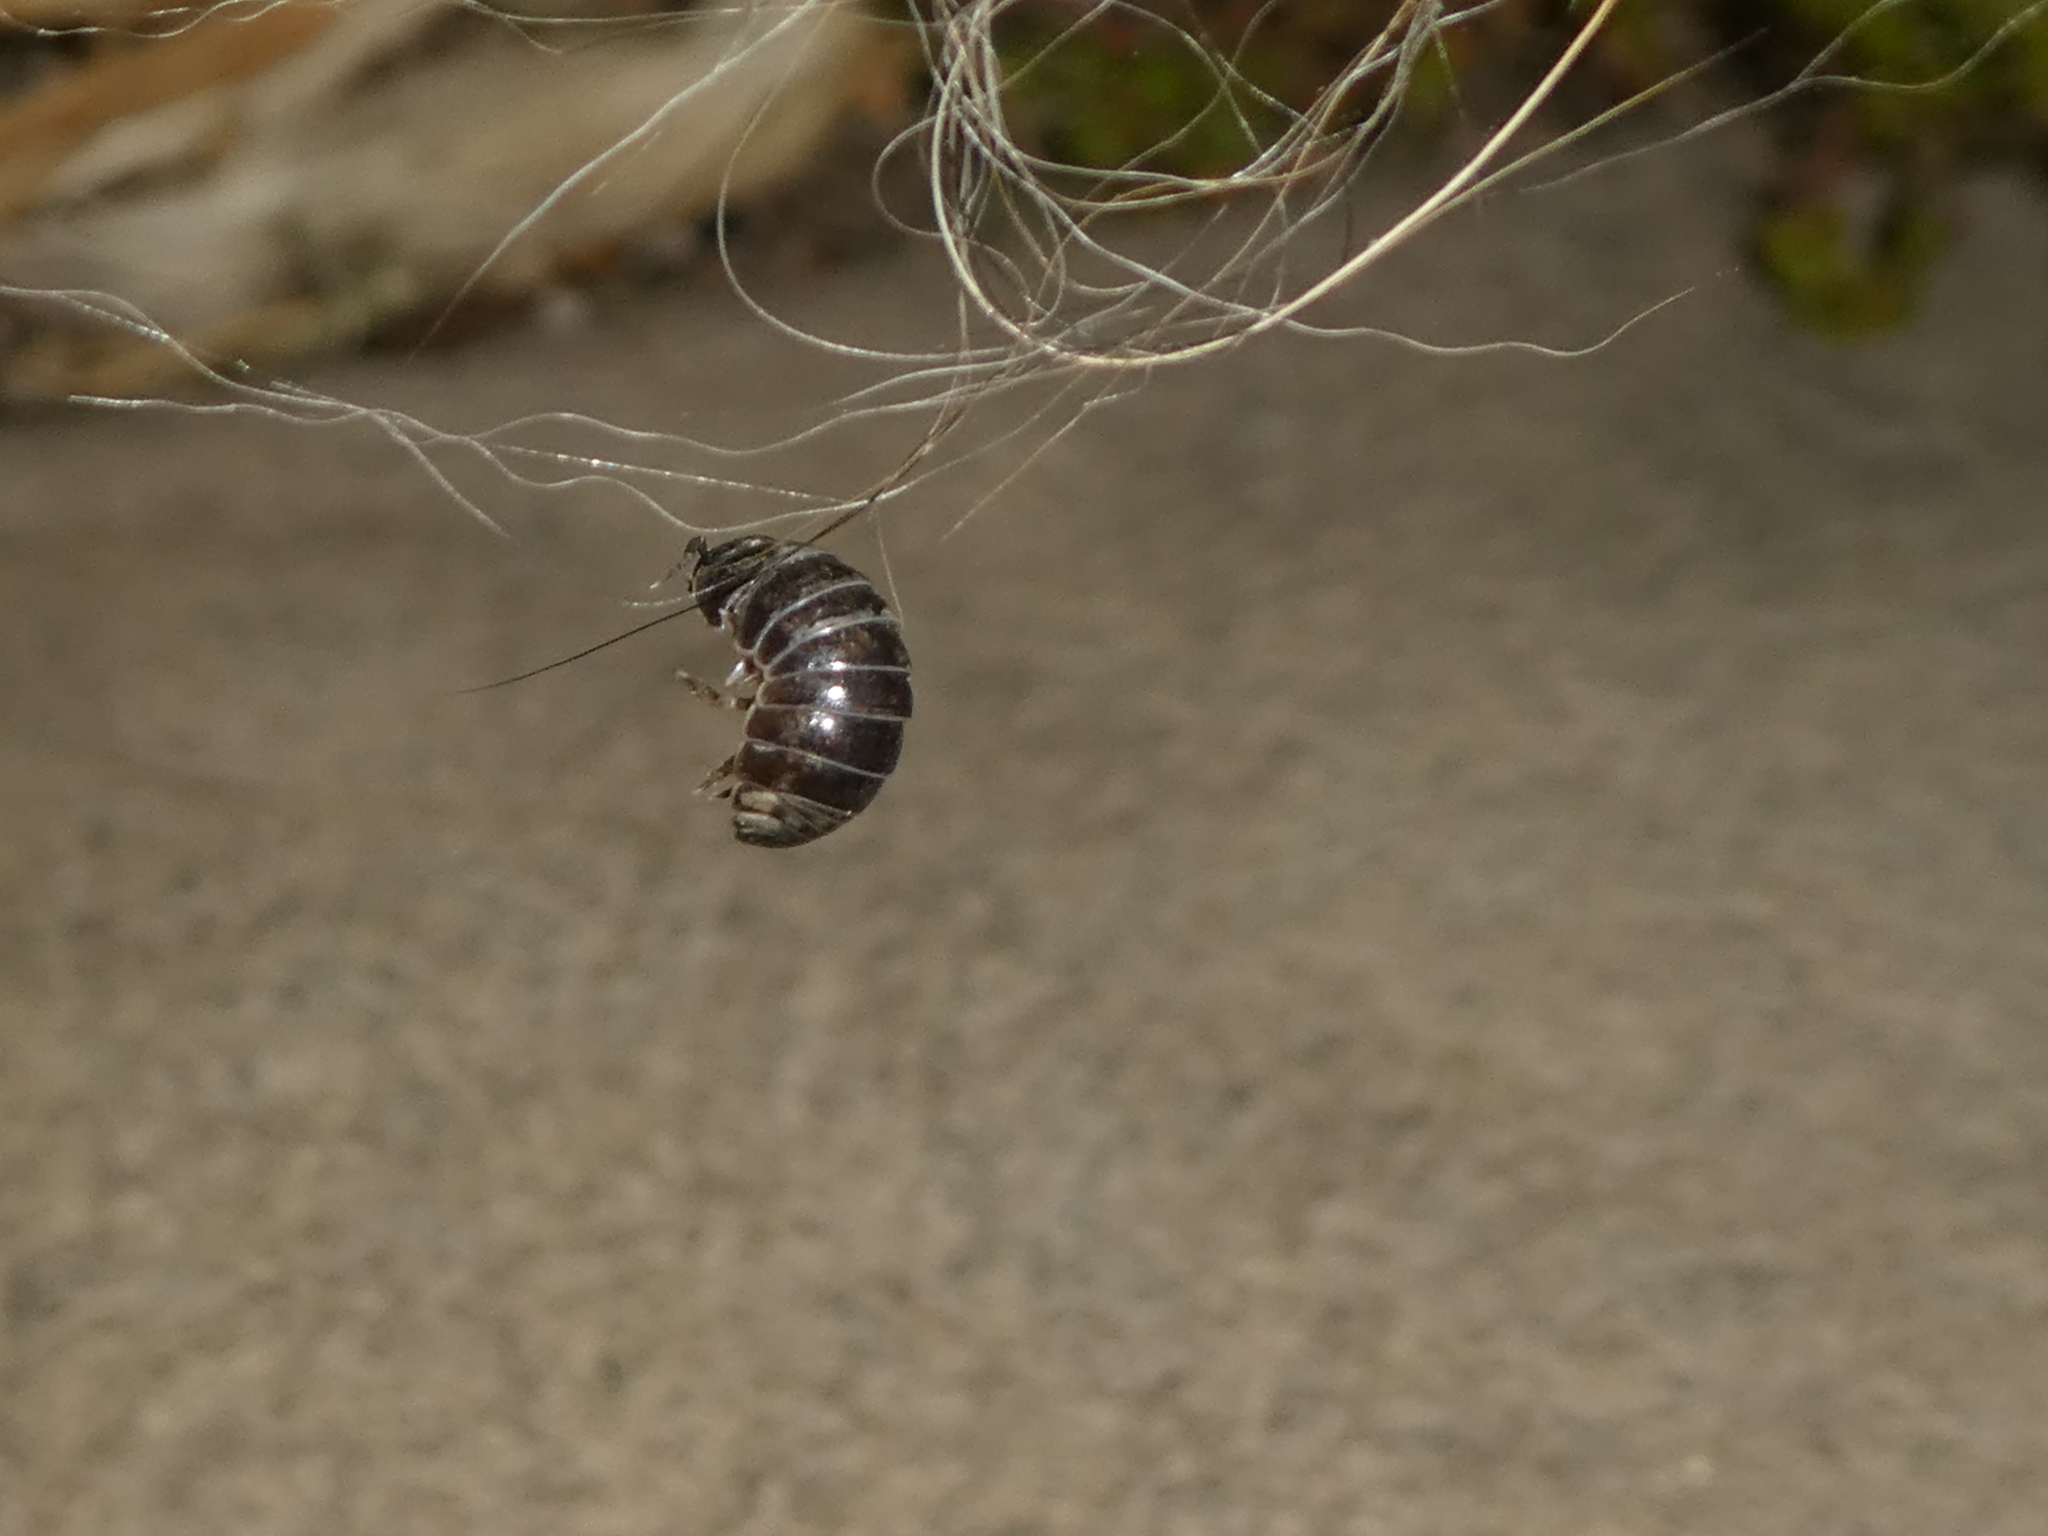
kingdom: Animalia
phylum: Arthropoda
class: Malacostraca
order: Isopoda
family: Armadillidiidae
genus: Armadillidium
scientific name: Armadillidium vulgare
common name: Common pill woodlouse
